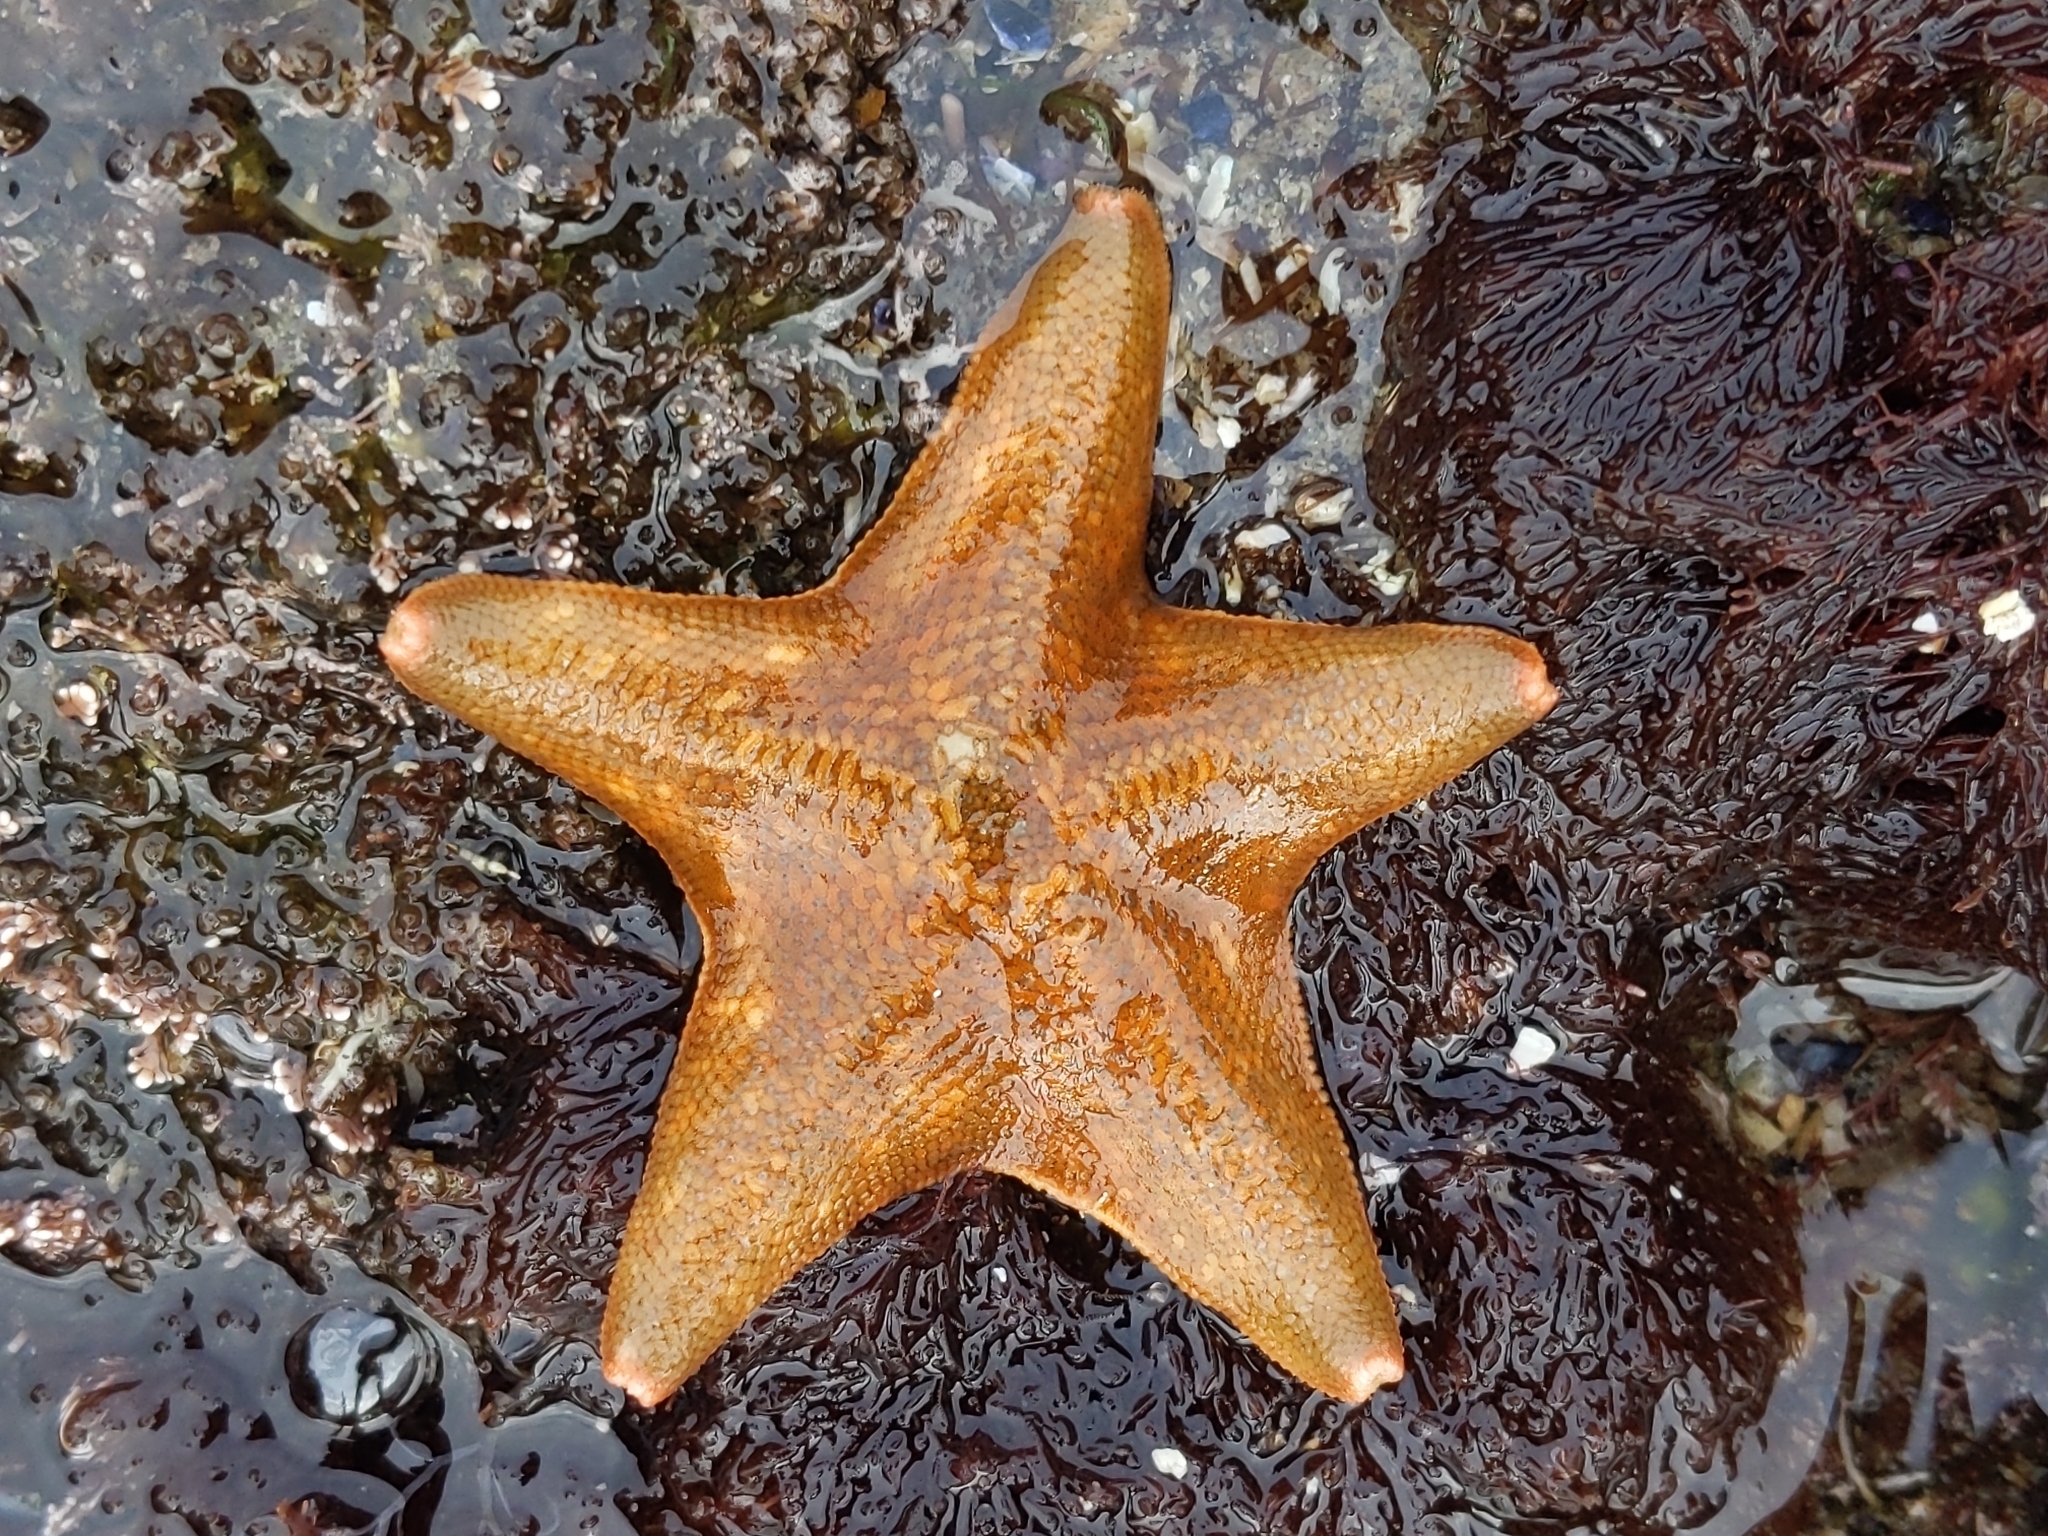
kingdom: Animalia
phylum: Echinodermata
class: Asteroidea
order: Valvatida
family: Asterinidae
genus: Patiria
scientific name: Patiria miniata
